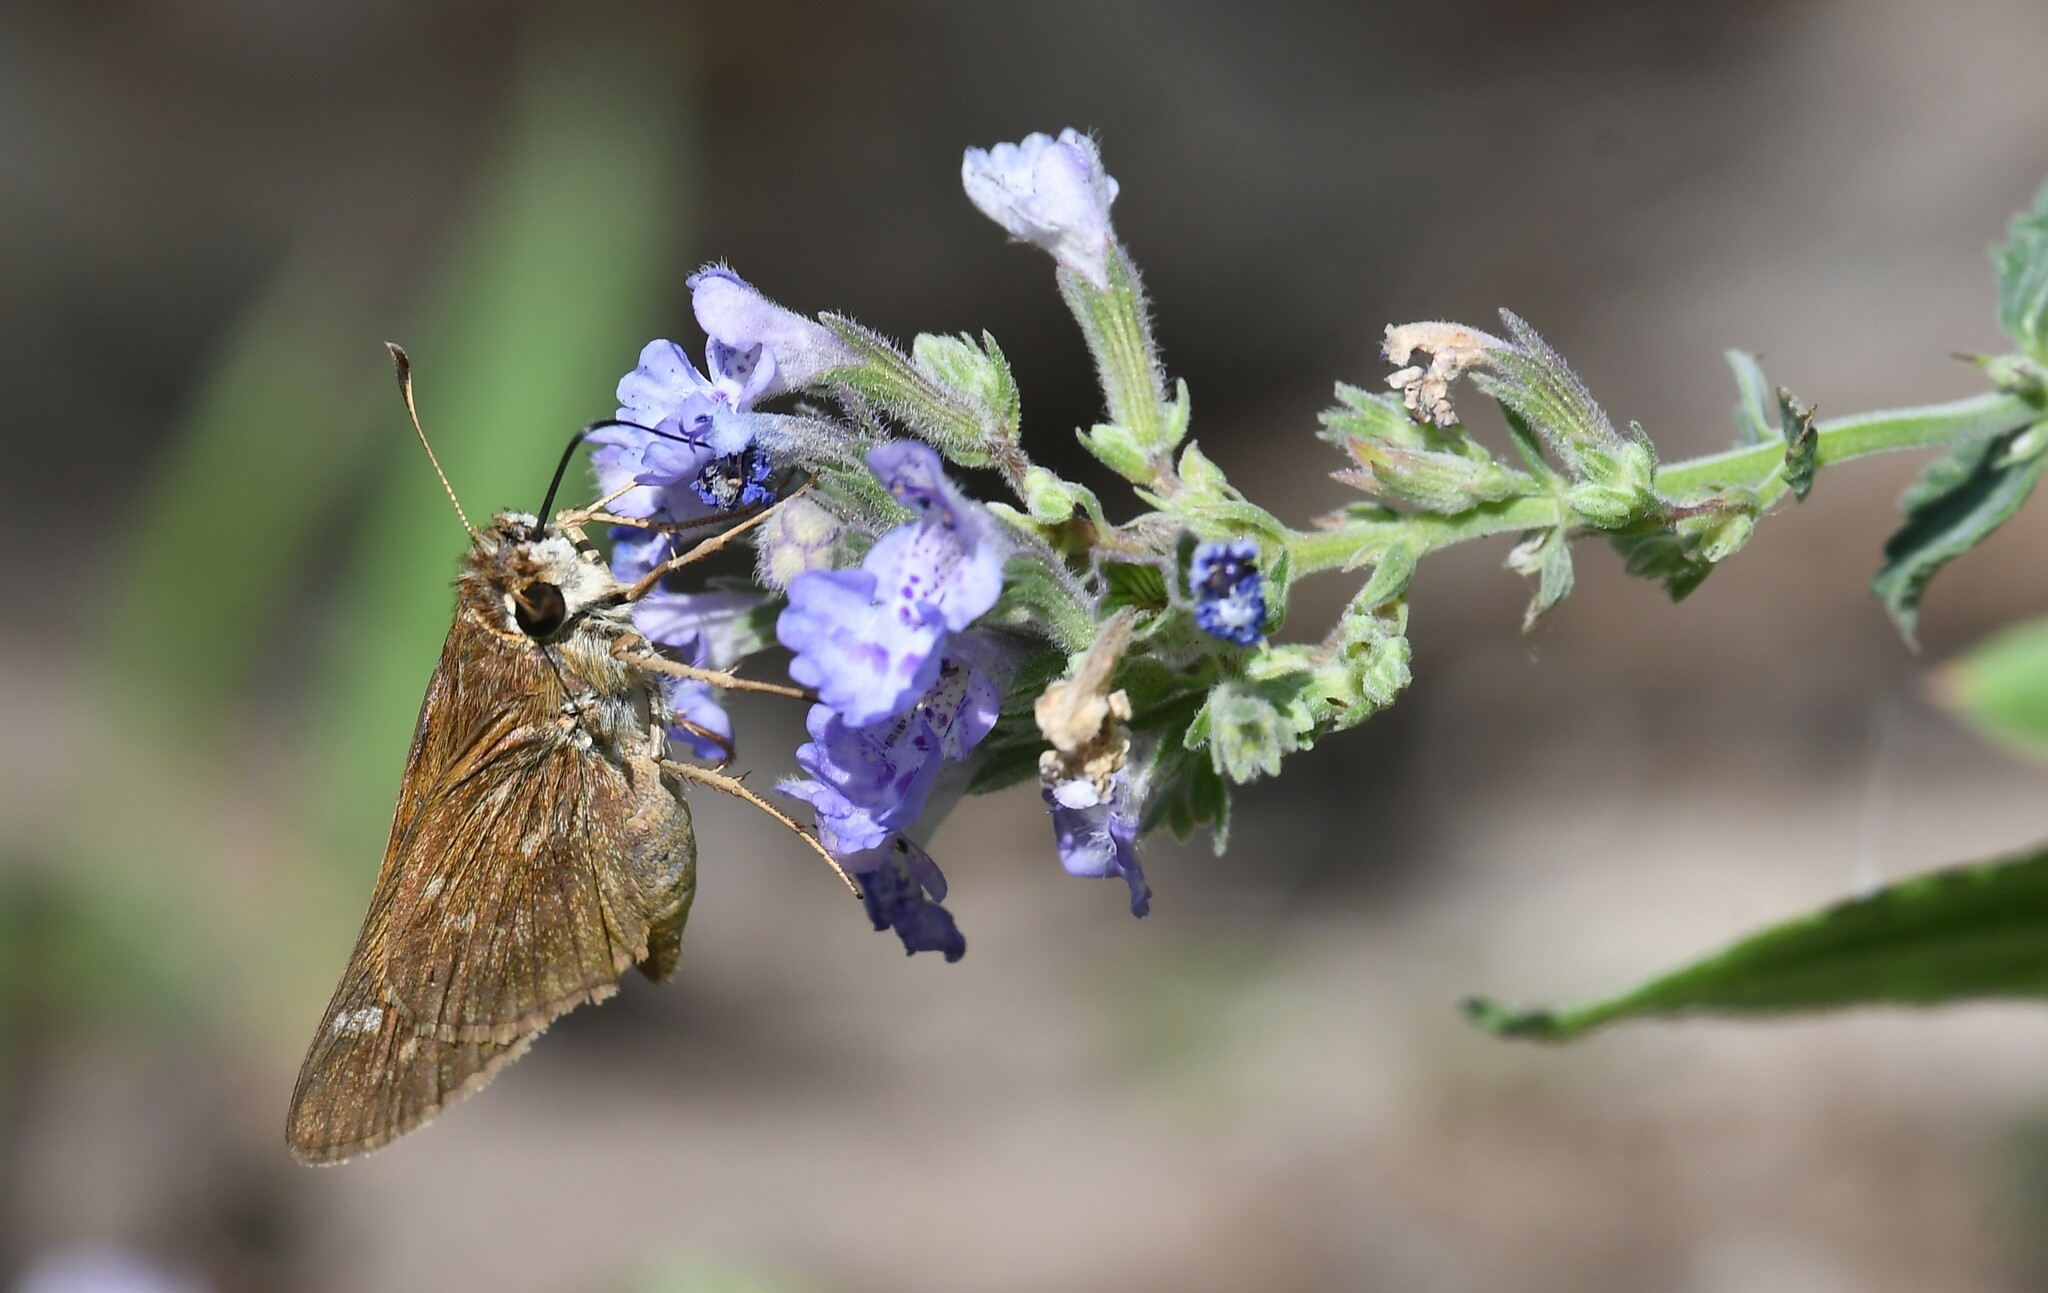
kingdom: Animalia
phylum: Arthropoda
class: Insecta
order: Lepidoptera
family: Hesperiidae
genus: Atalopedes
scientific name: Atalopedes
